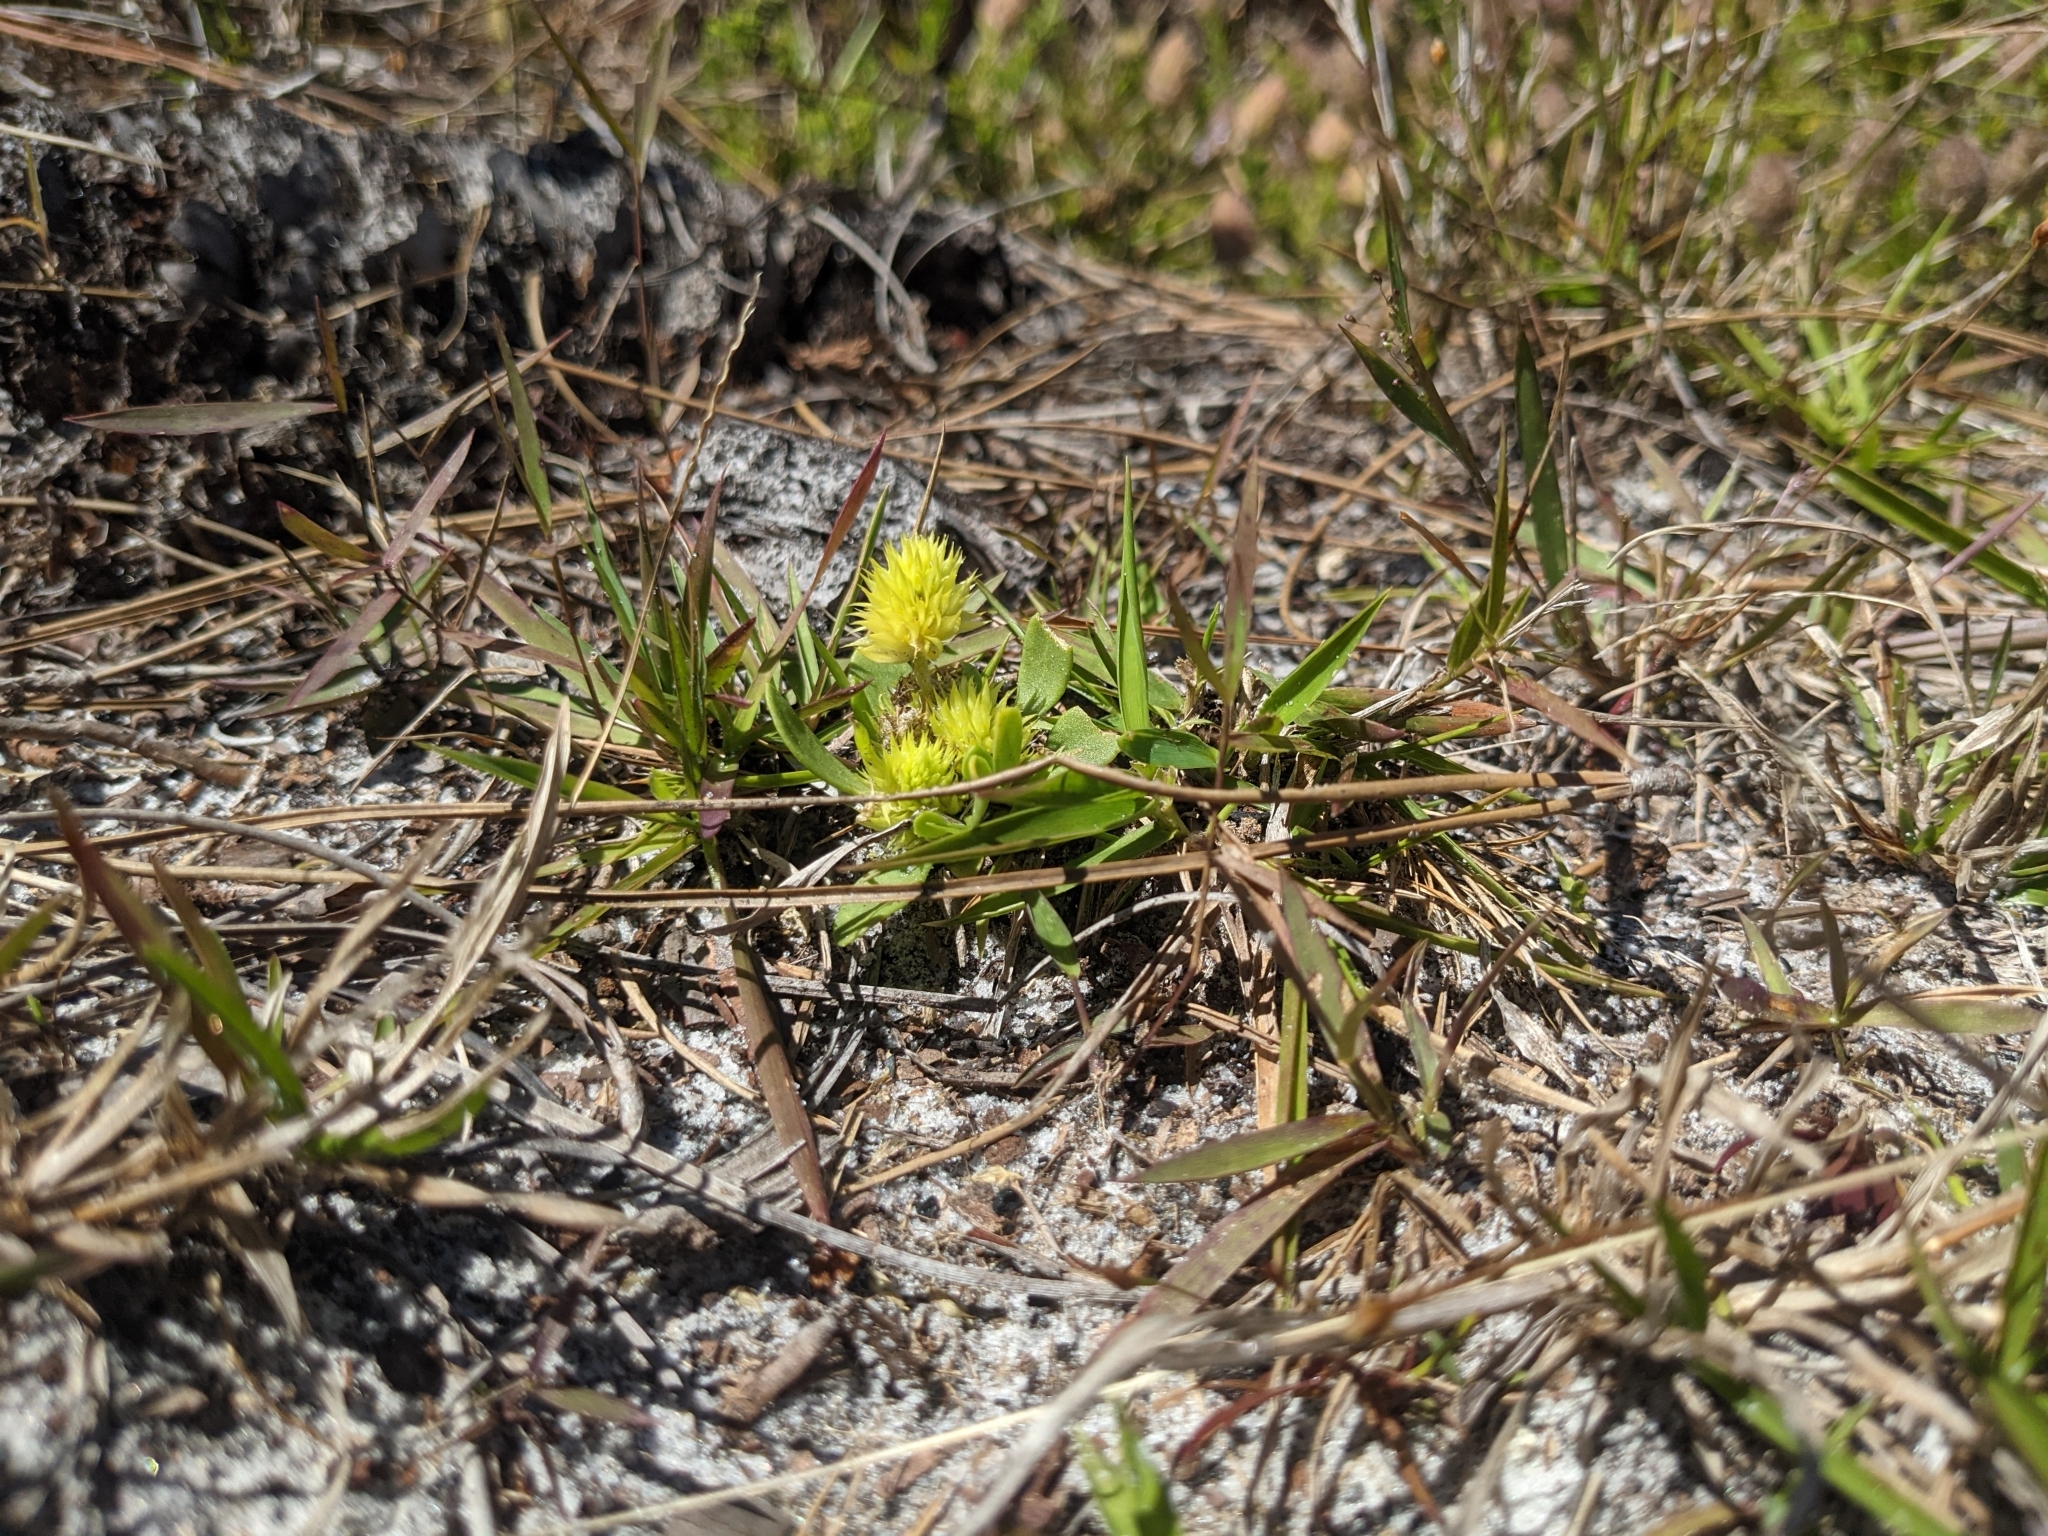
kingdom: Plantae
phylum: Tracheophyta
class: Magnoliopsida
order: Fabales
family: Polygalaceae
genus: Polygala
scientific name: Polygala nana
